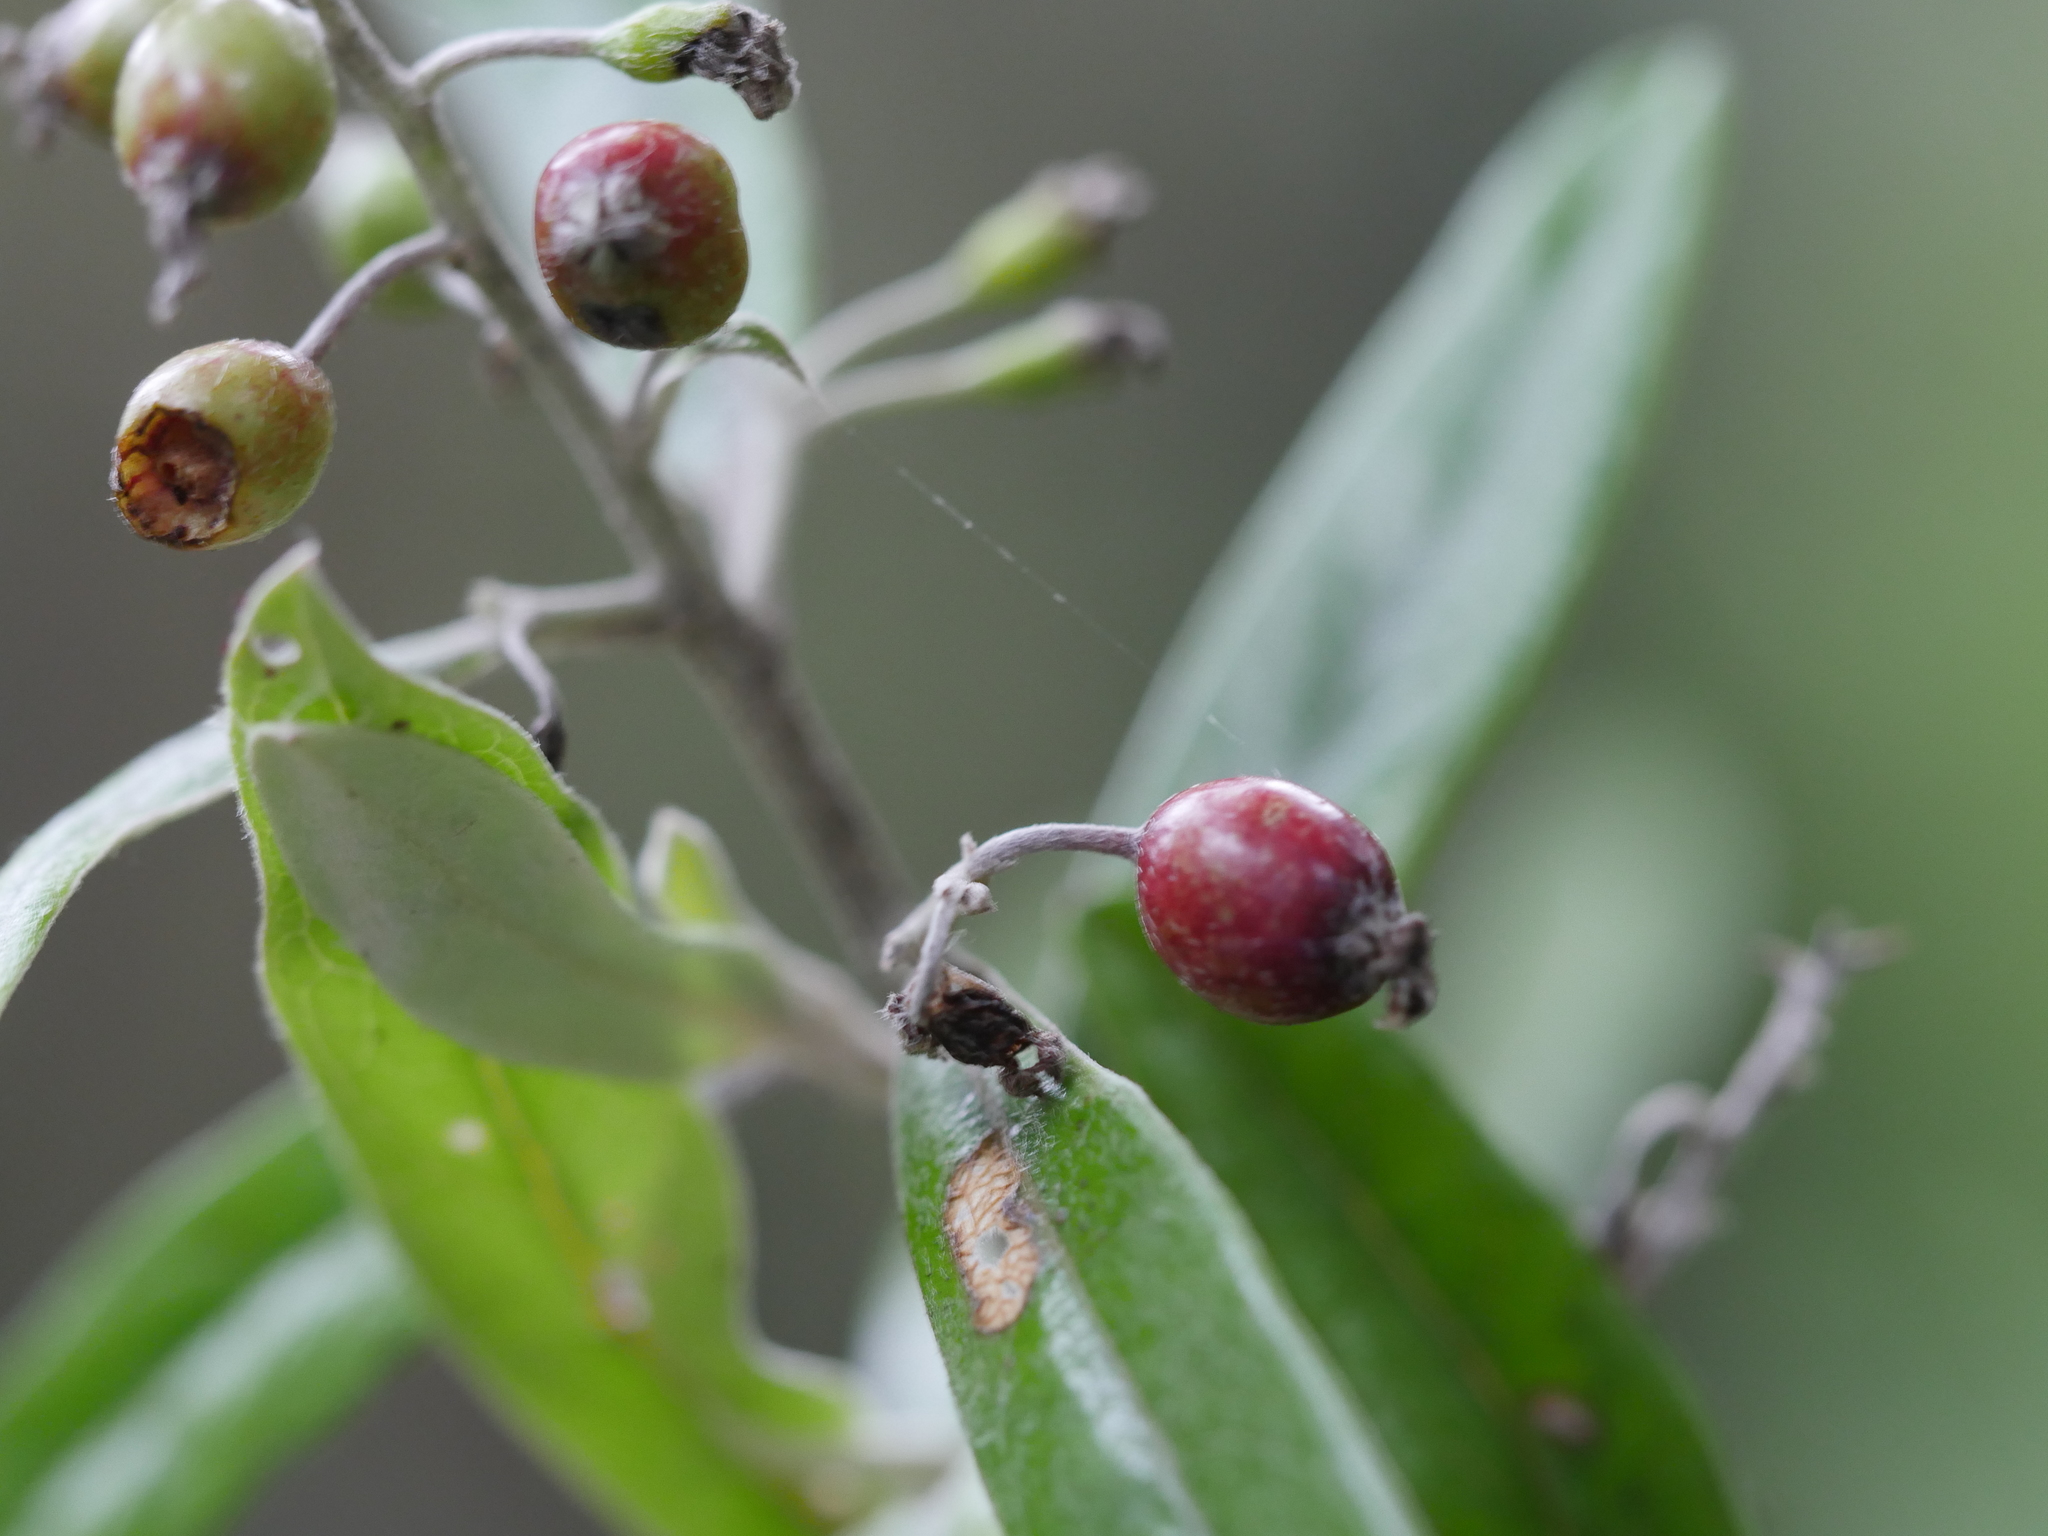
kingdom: Plantae
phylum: Tracheophyta
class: Magnoliopsida
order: Asterales
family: Argophyllaceae
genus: Corokia
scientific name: Corokia buddleioides
